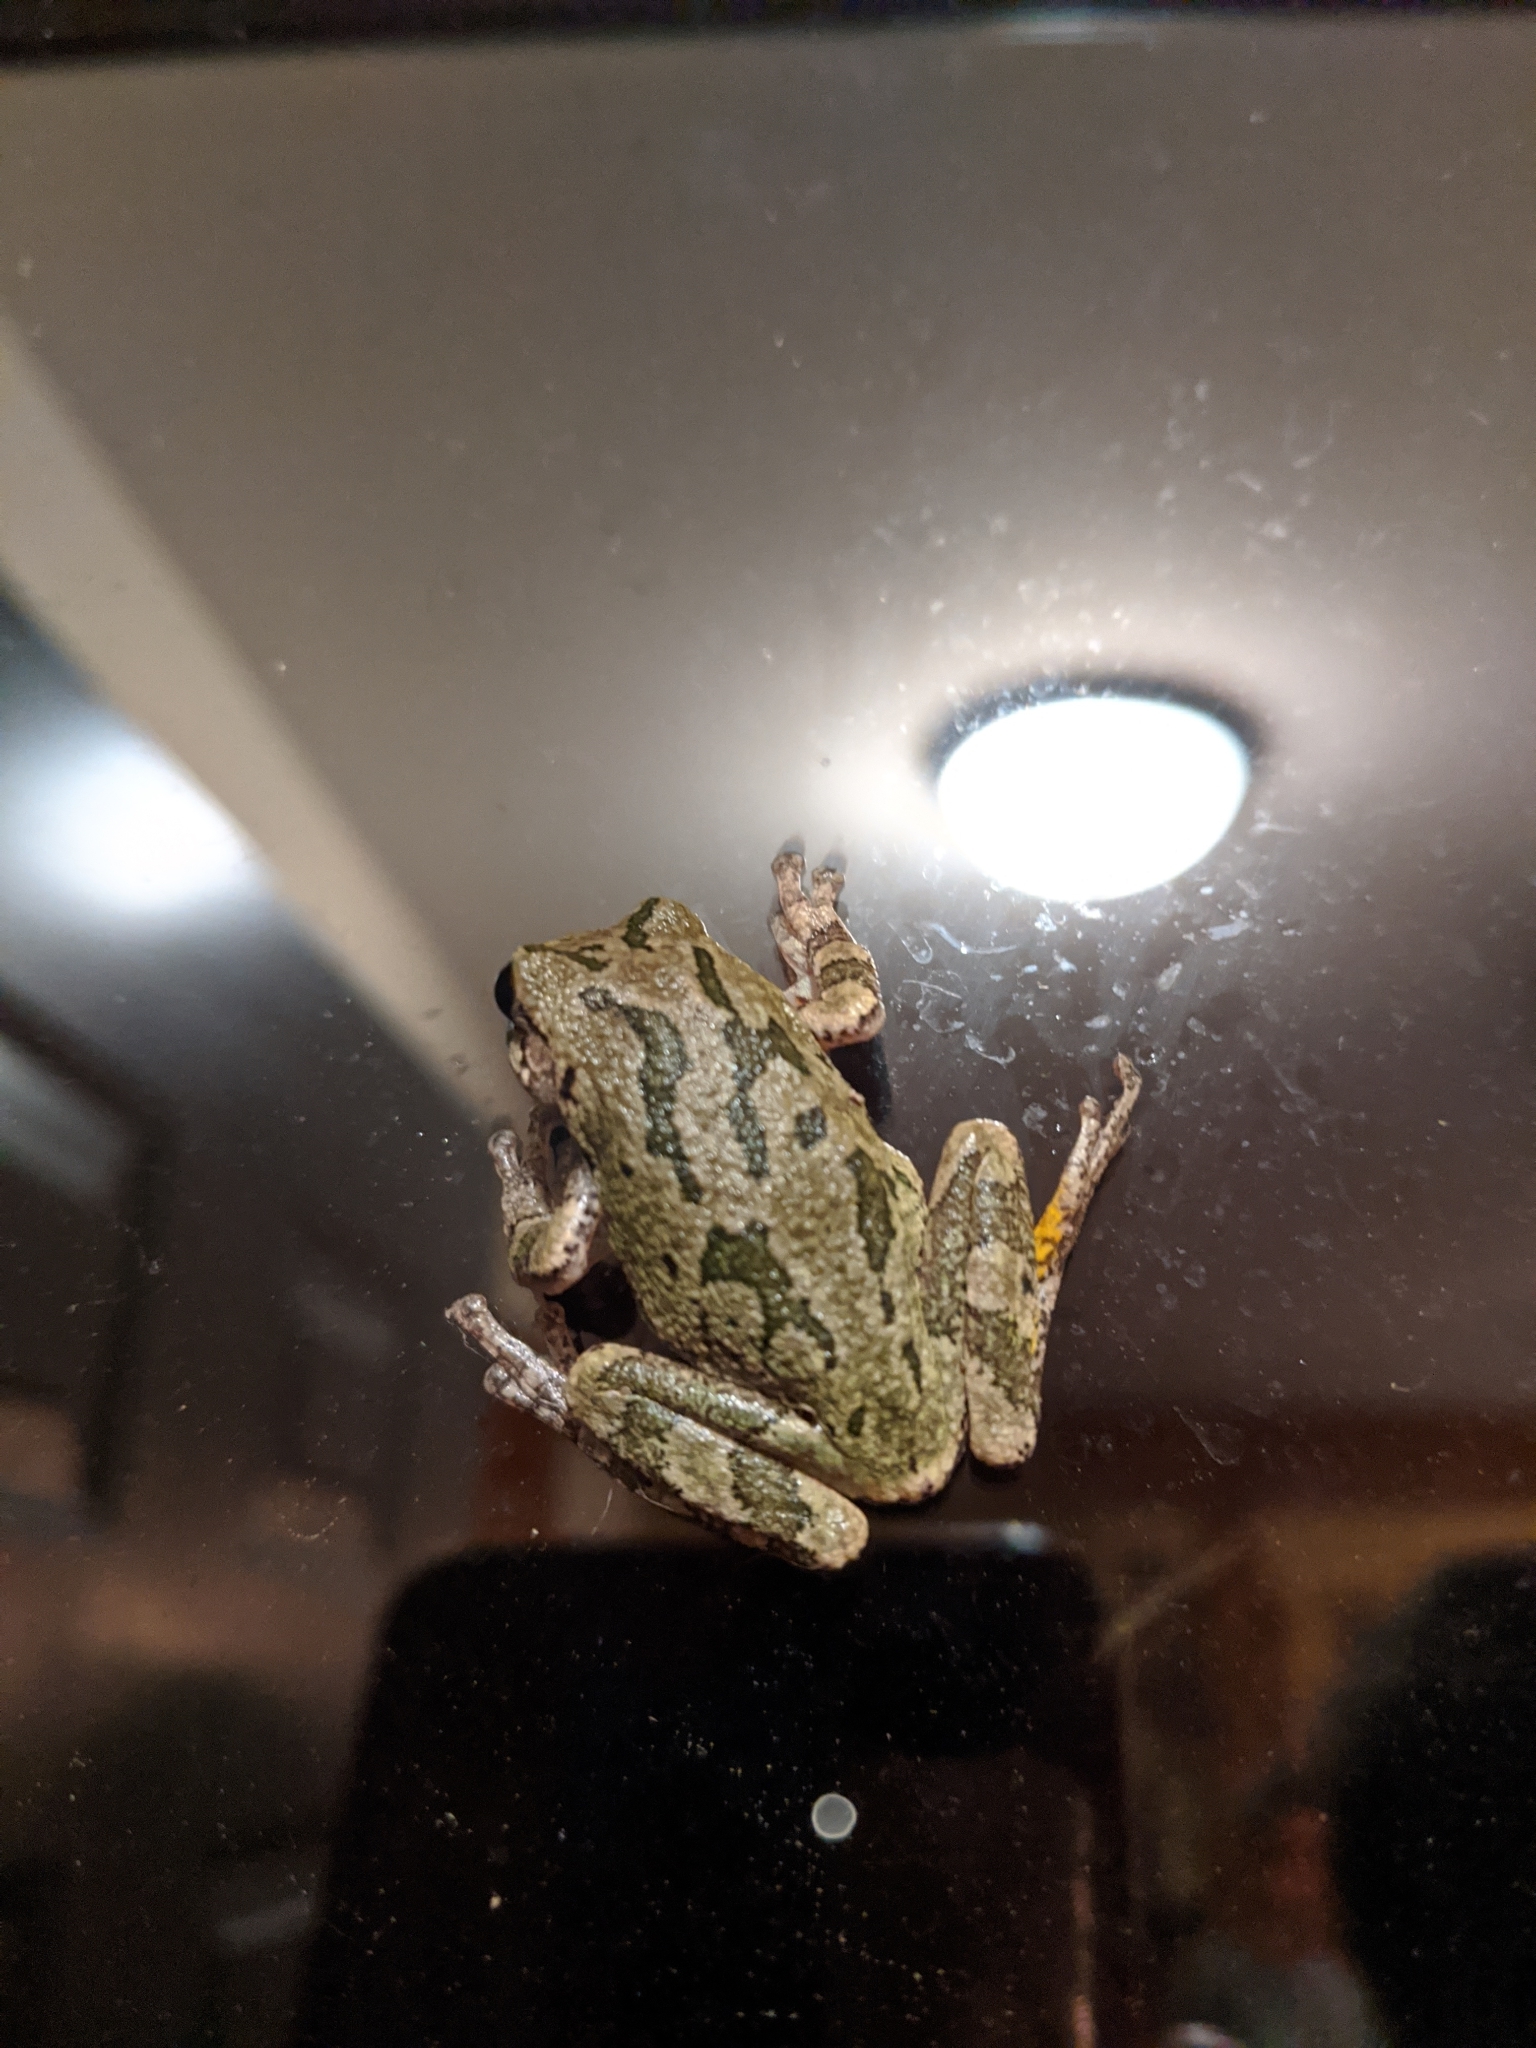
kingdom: Animalia
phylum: Chordata
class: Amphibia
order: Anura
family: Hylidae
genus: Hyla
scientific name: Hyla
